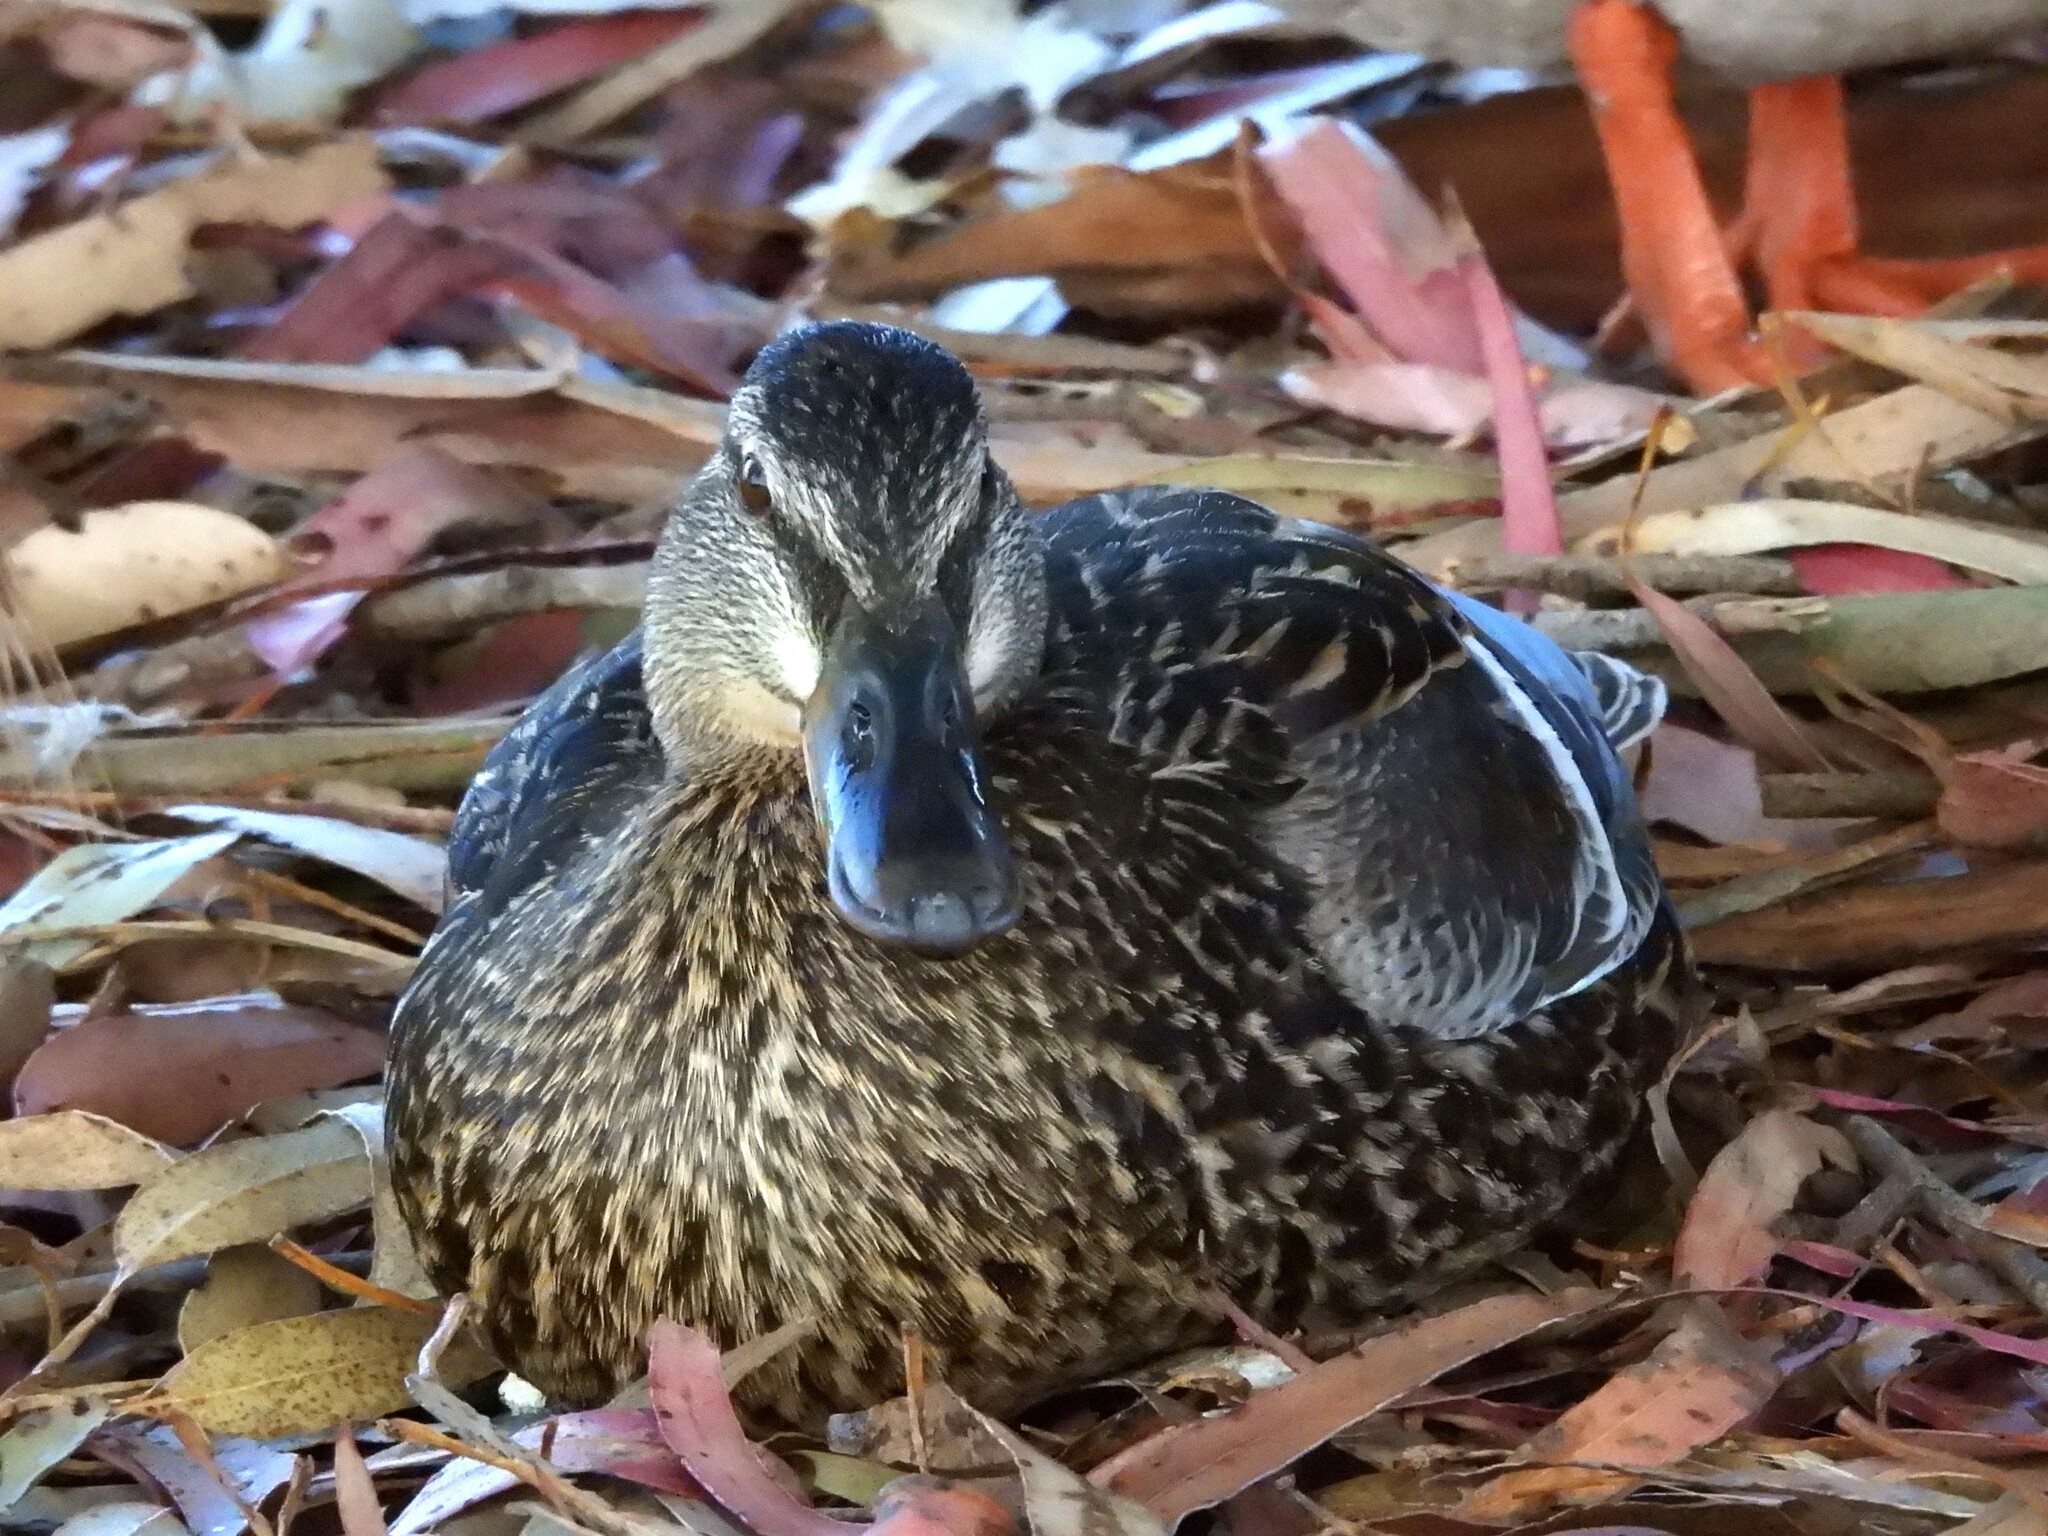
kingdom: Animalia
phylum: Chordata
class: Aves
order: Anseriformes
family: Anatidae
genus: Anas
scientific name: Anas platyrhynchos
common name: Mallard
